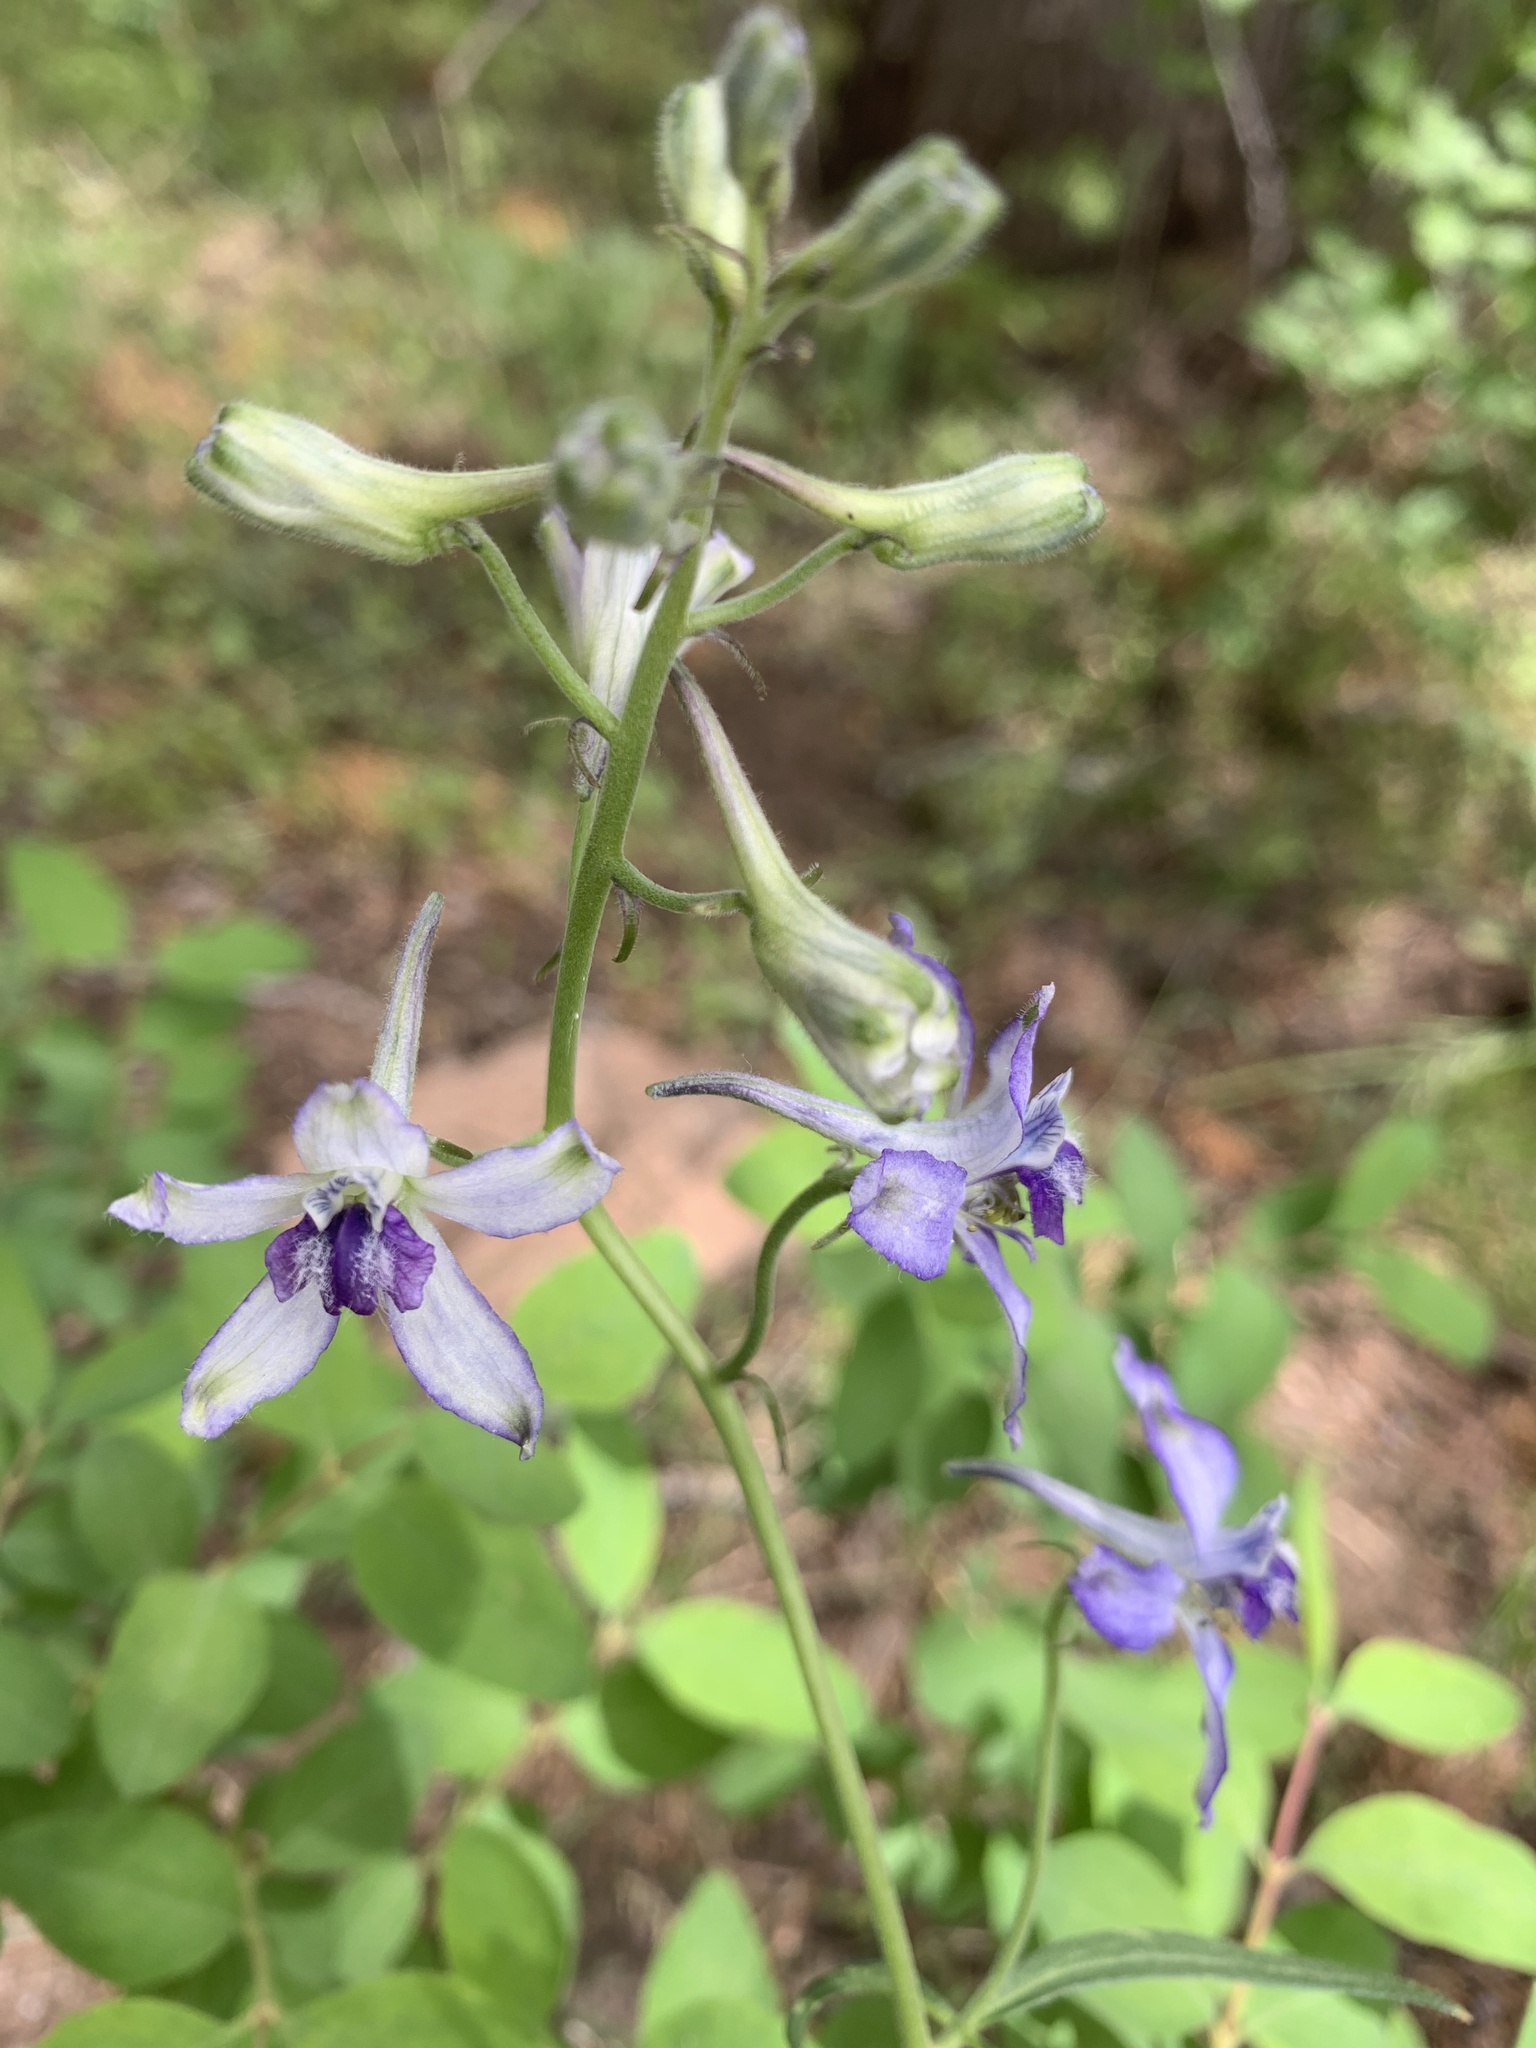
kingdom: Plantae
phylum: Tracheophyta
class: Magnoliopsida
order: Ranunculales
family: Ranunculaceae
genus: Delphinium
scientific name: Delphinium nuttallianum
